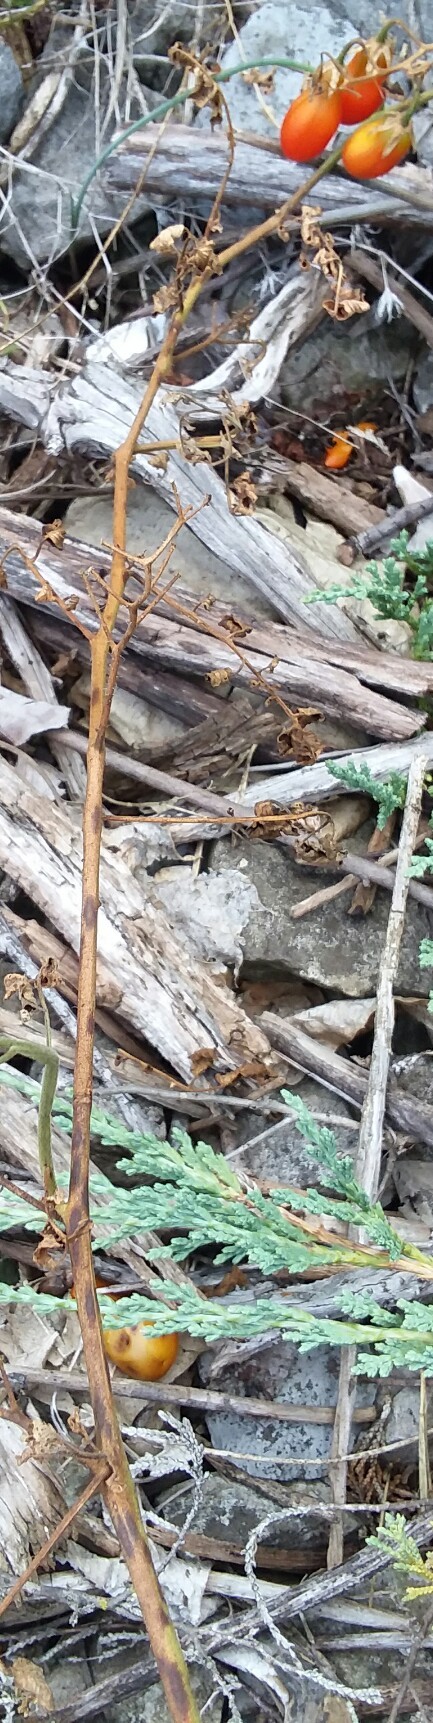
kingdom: Plantae
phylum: Tracheophyta
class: Magnoliopsida
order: Solanales
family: Solanaceae
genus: Solanum
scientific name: Solanum lycopersicum
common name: Garden tomato
